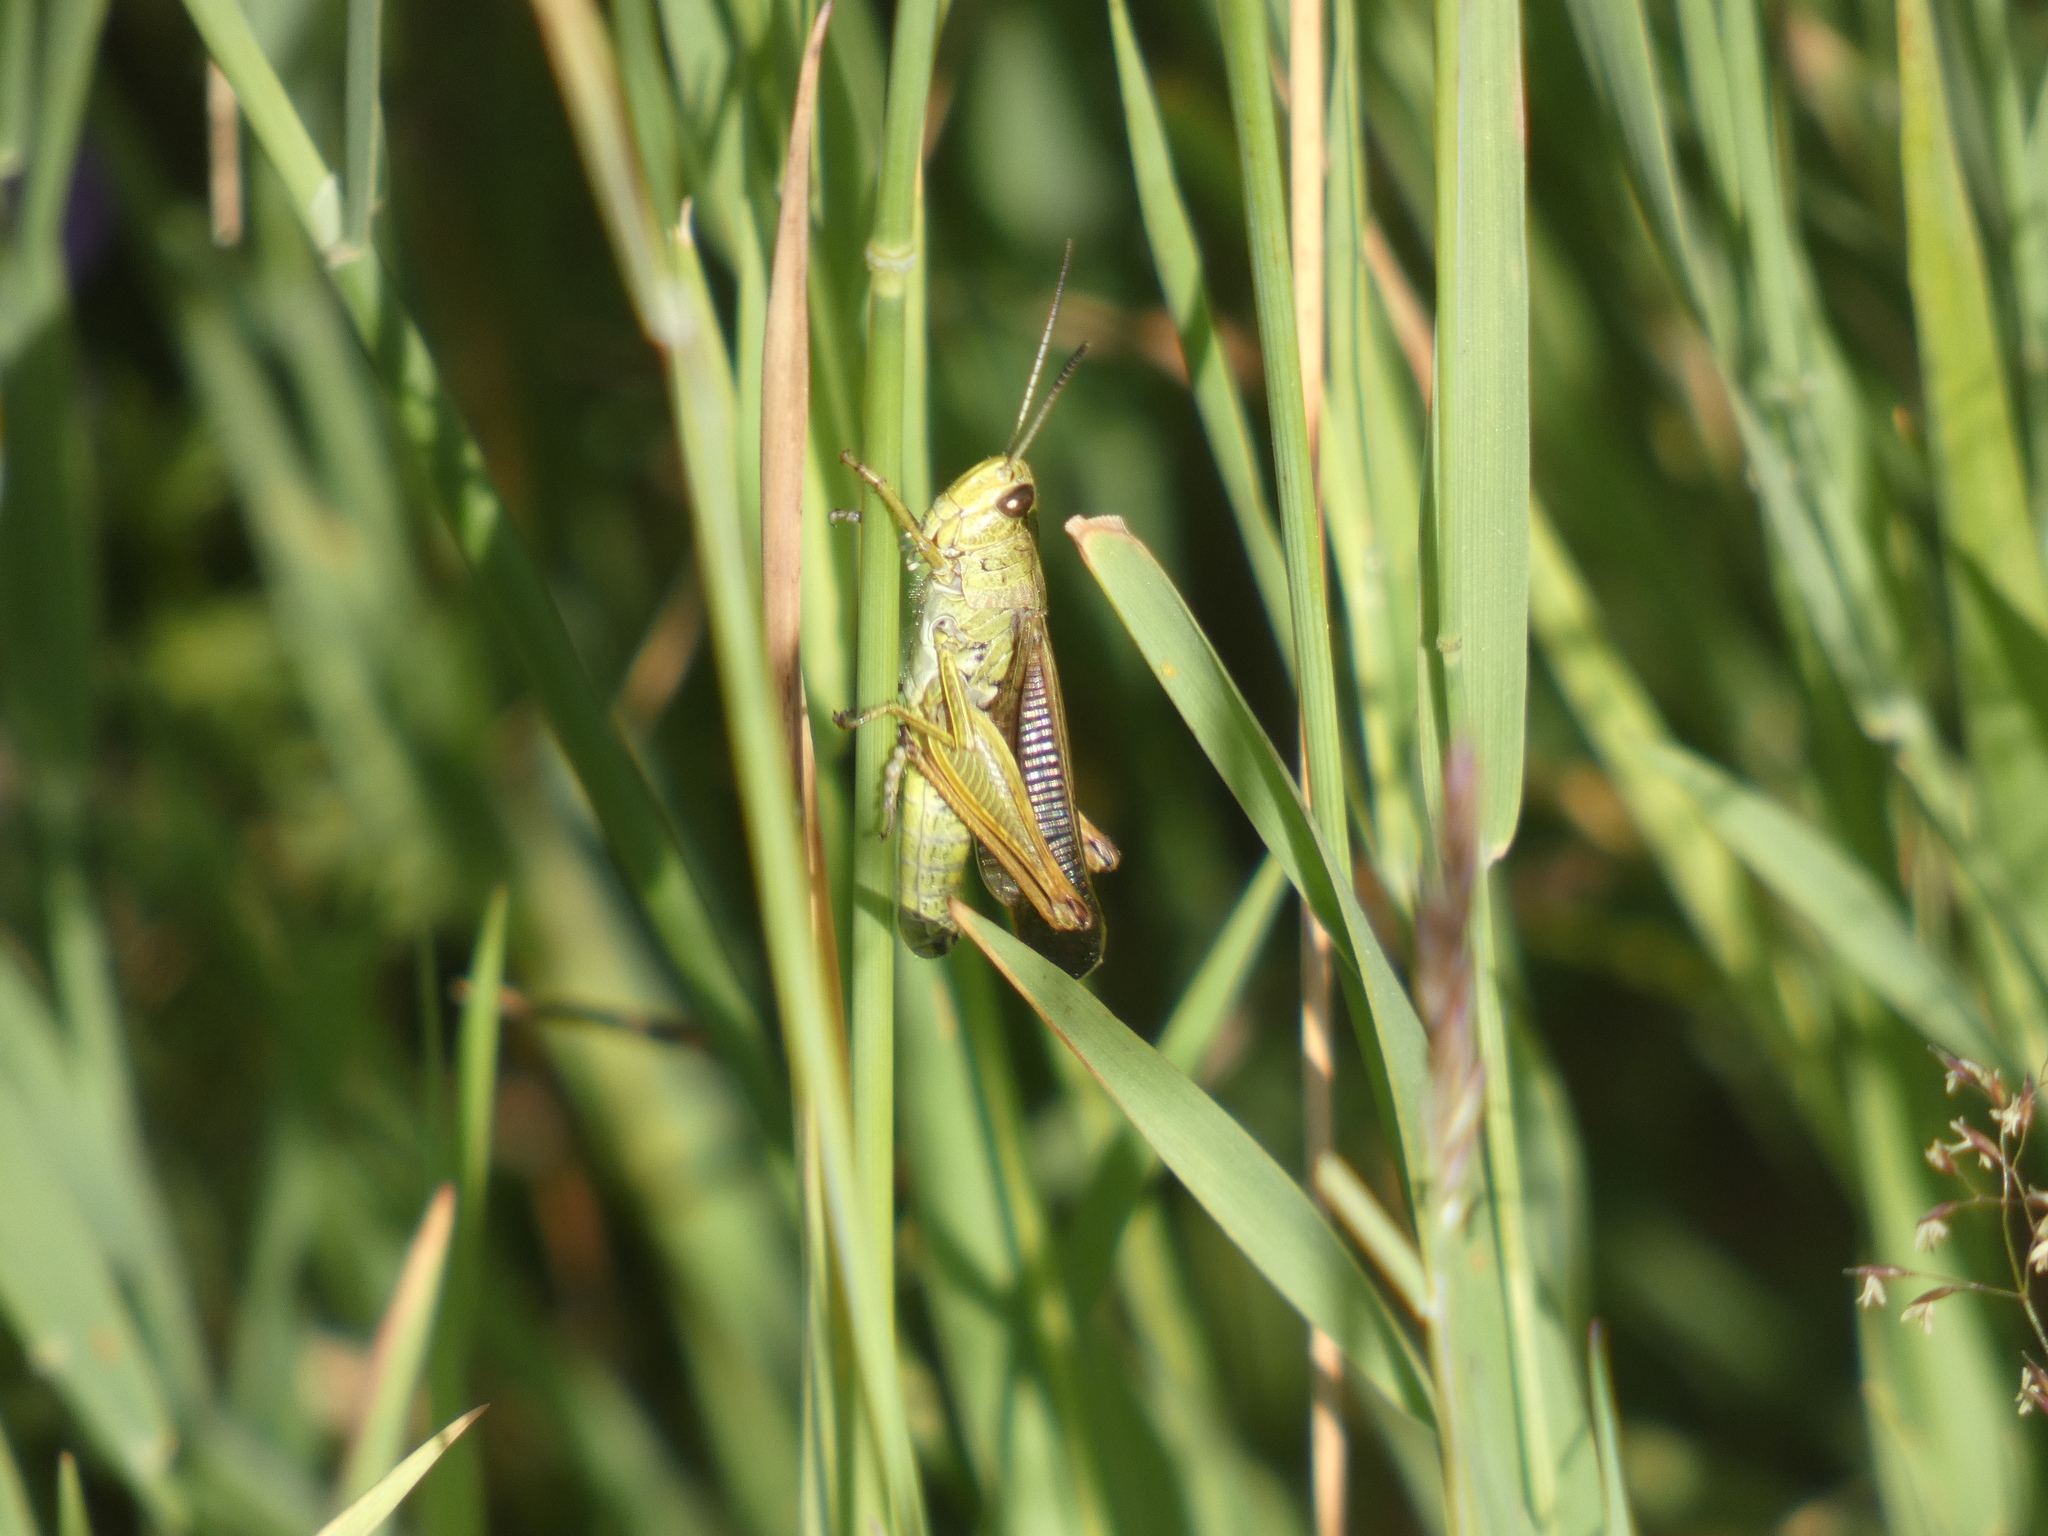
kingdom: Animalia
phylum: Arthropoda
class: Insecta
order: Orthoptera
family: Acrididae
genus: Stauroderus
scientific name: Stauroderus scalaris
